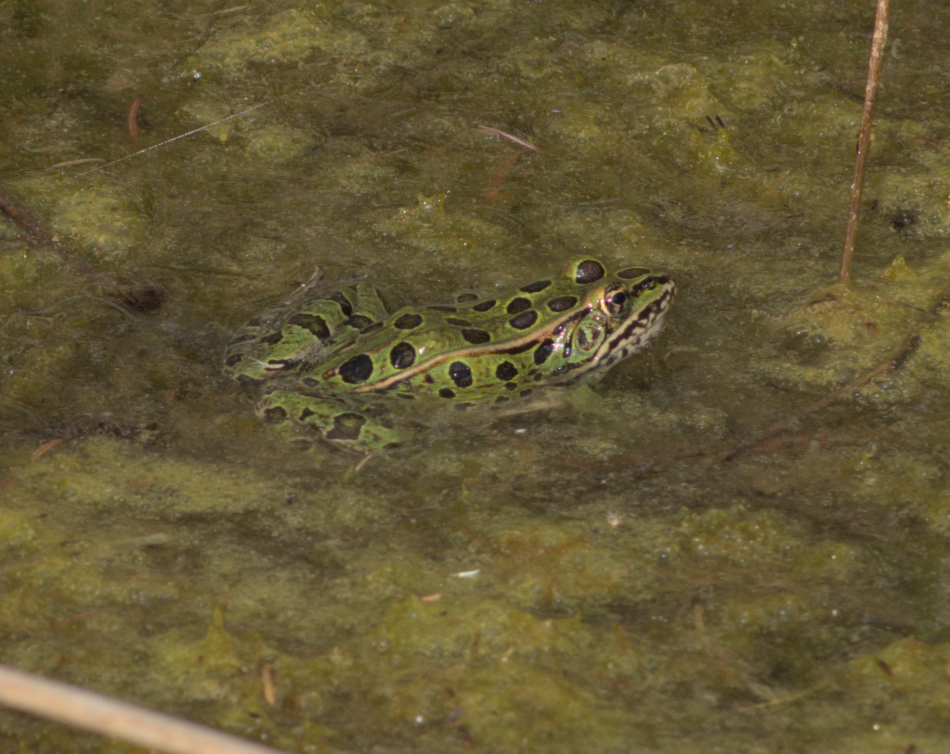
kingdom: Animalia
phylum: Chordata
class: Amphibia
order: Anura
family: Ranidae
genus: Lithobates
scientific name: Lithobates pipiens
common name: Northern leopard frog
